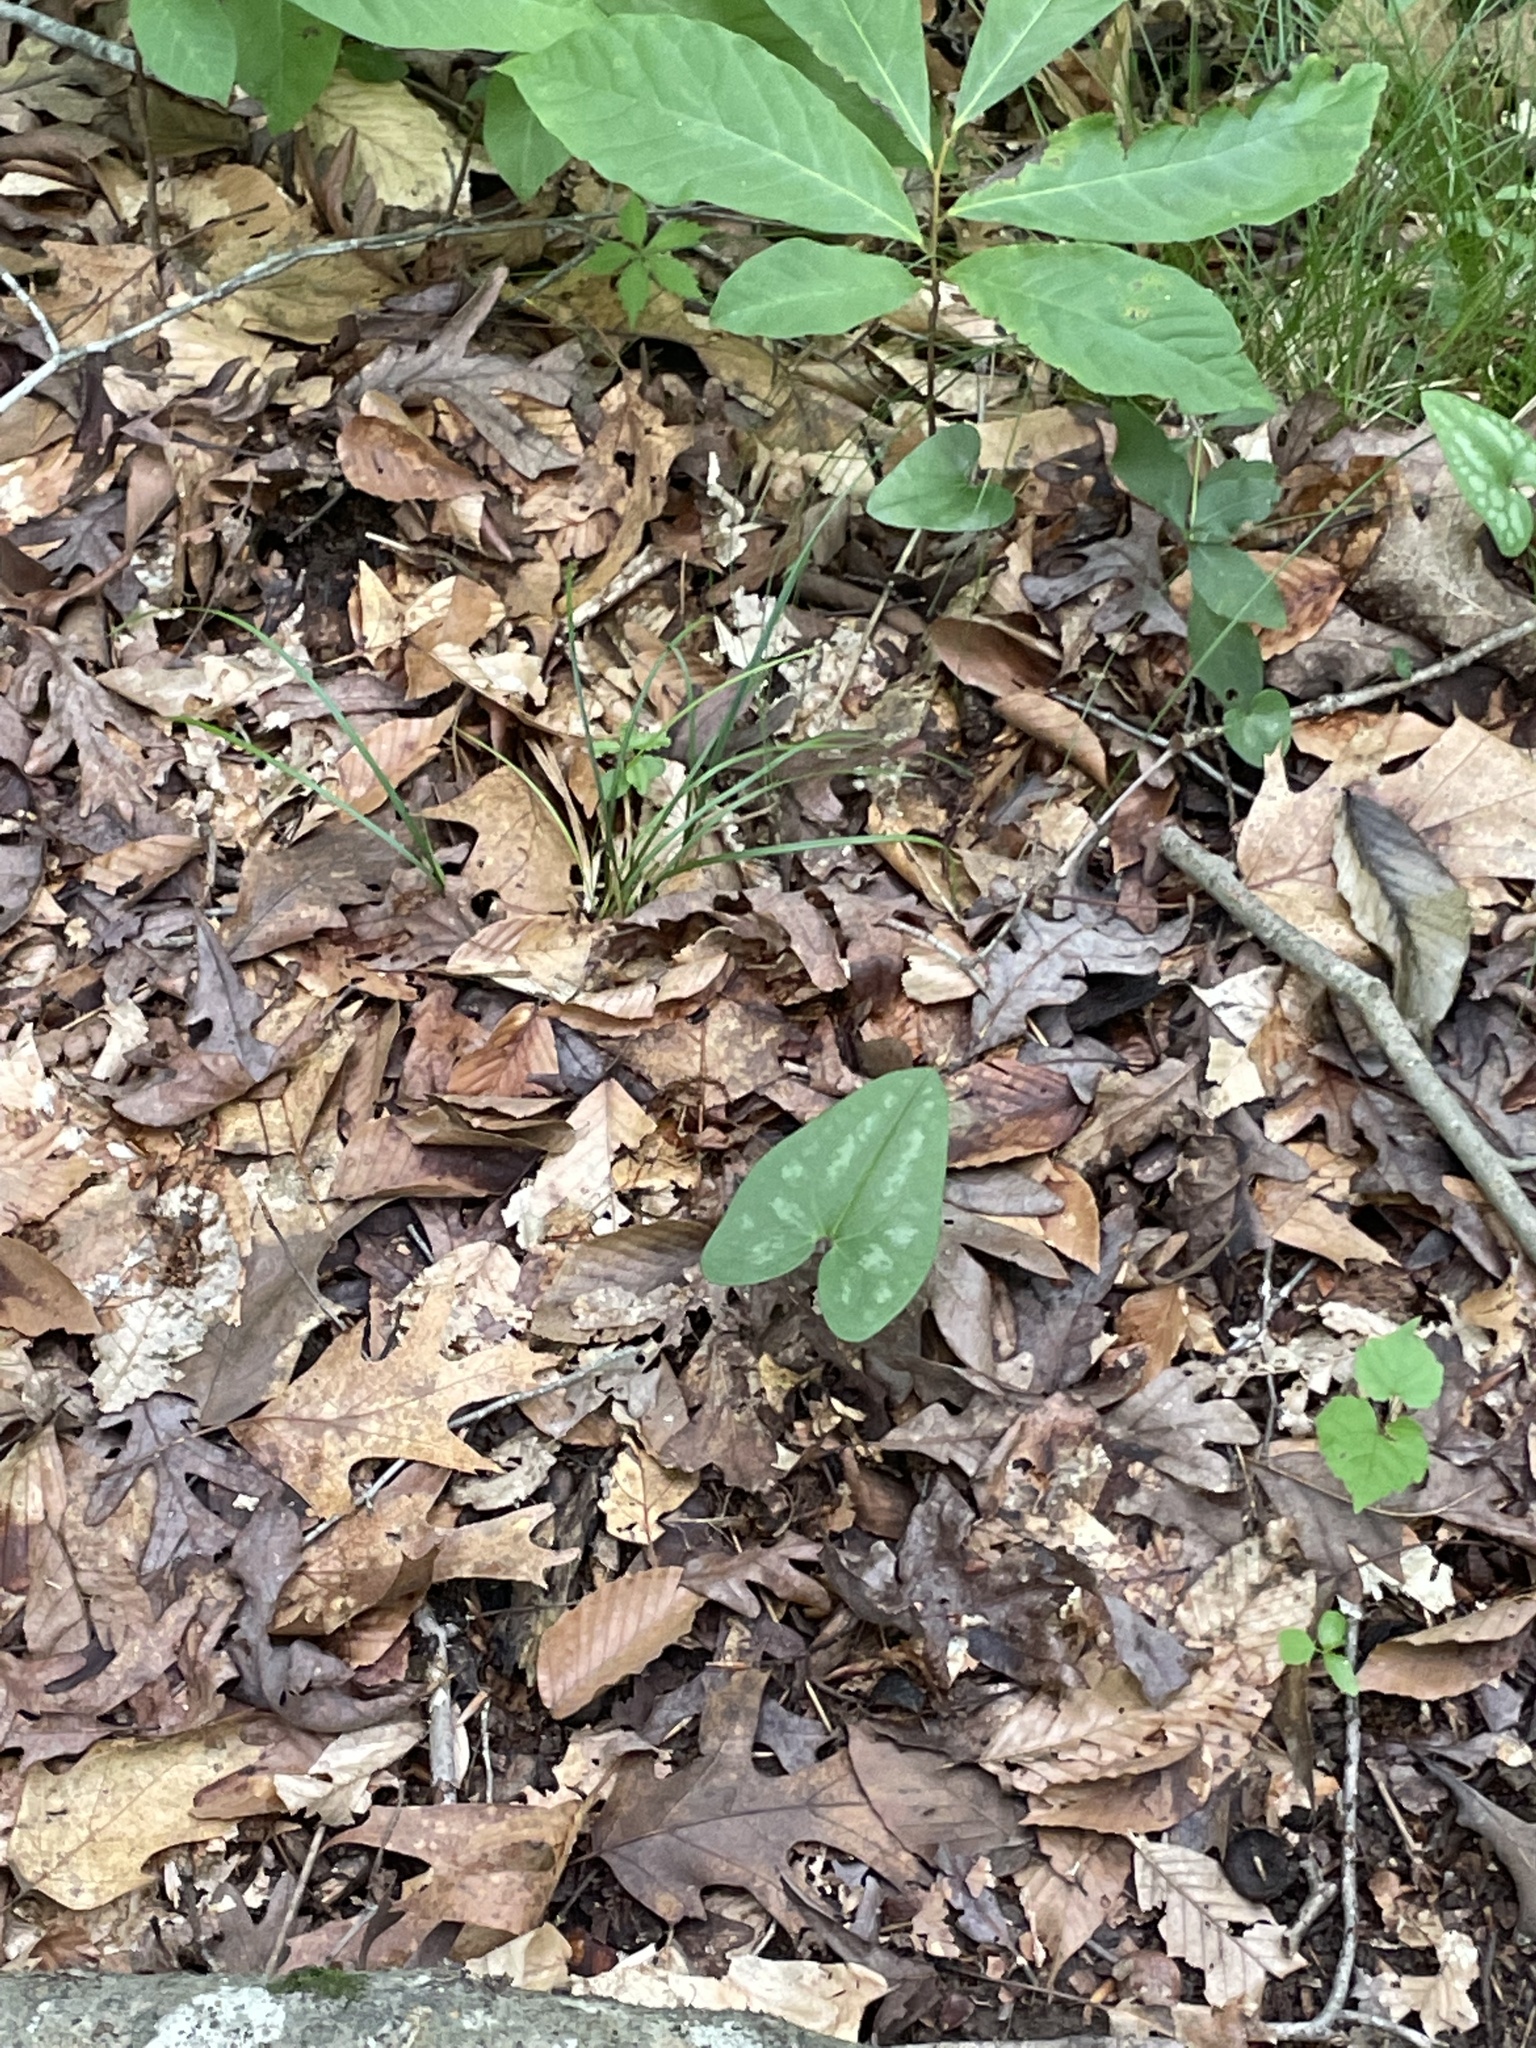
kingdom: Plantae
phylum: Tracheophyta
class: Magnoliopsida
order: Piperales
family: Aristolochiaceae
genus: Hexastylis
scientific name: Hexastylis arifolia
